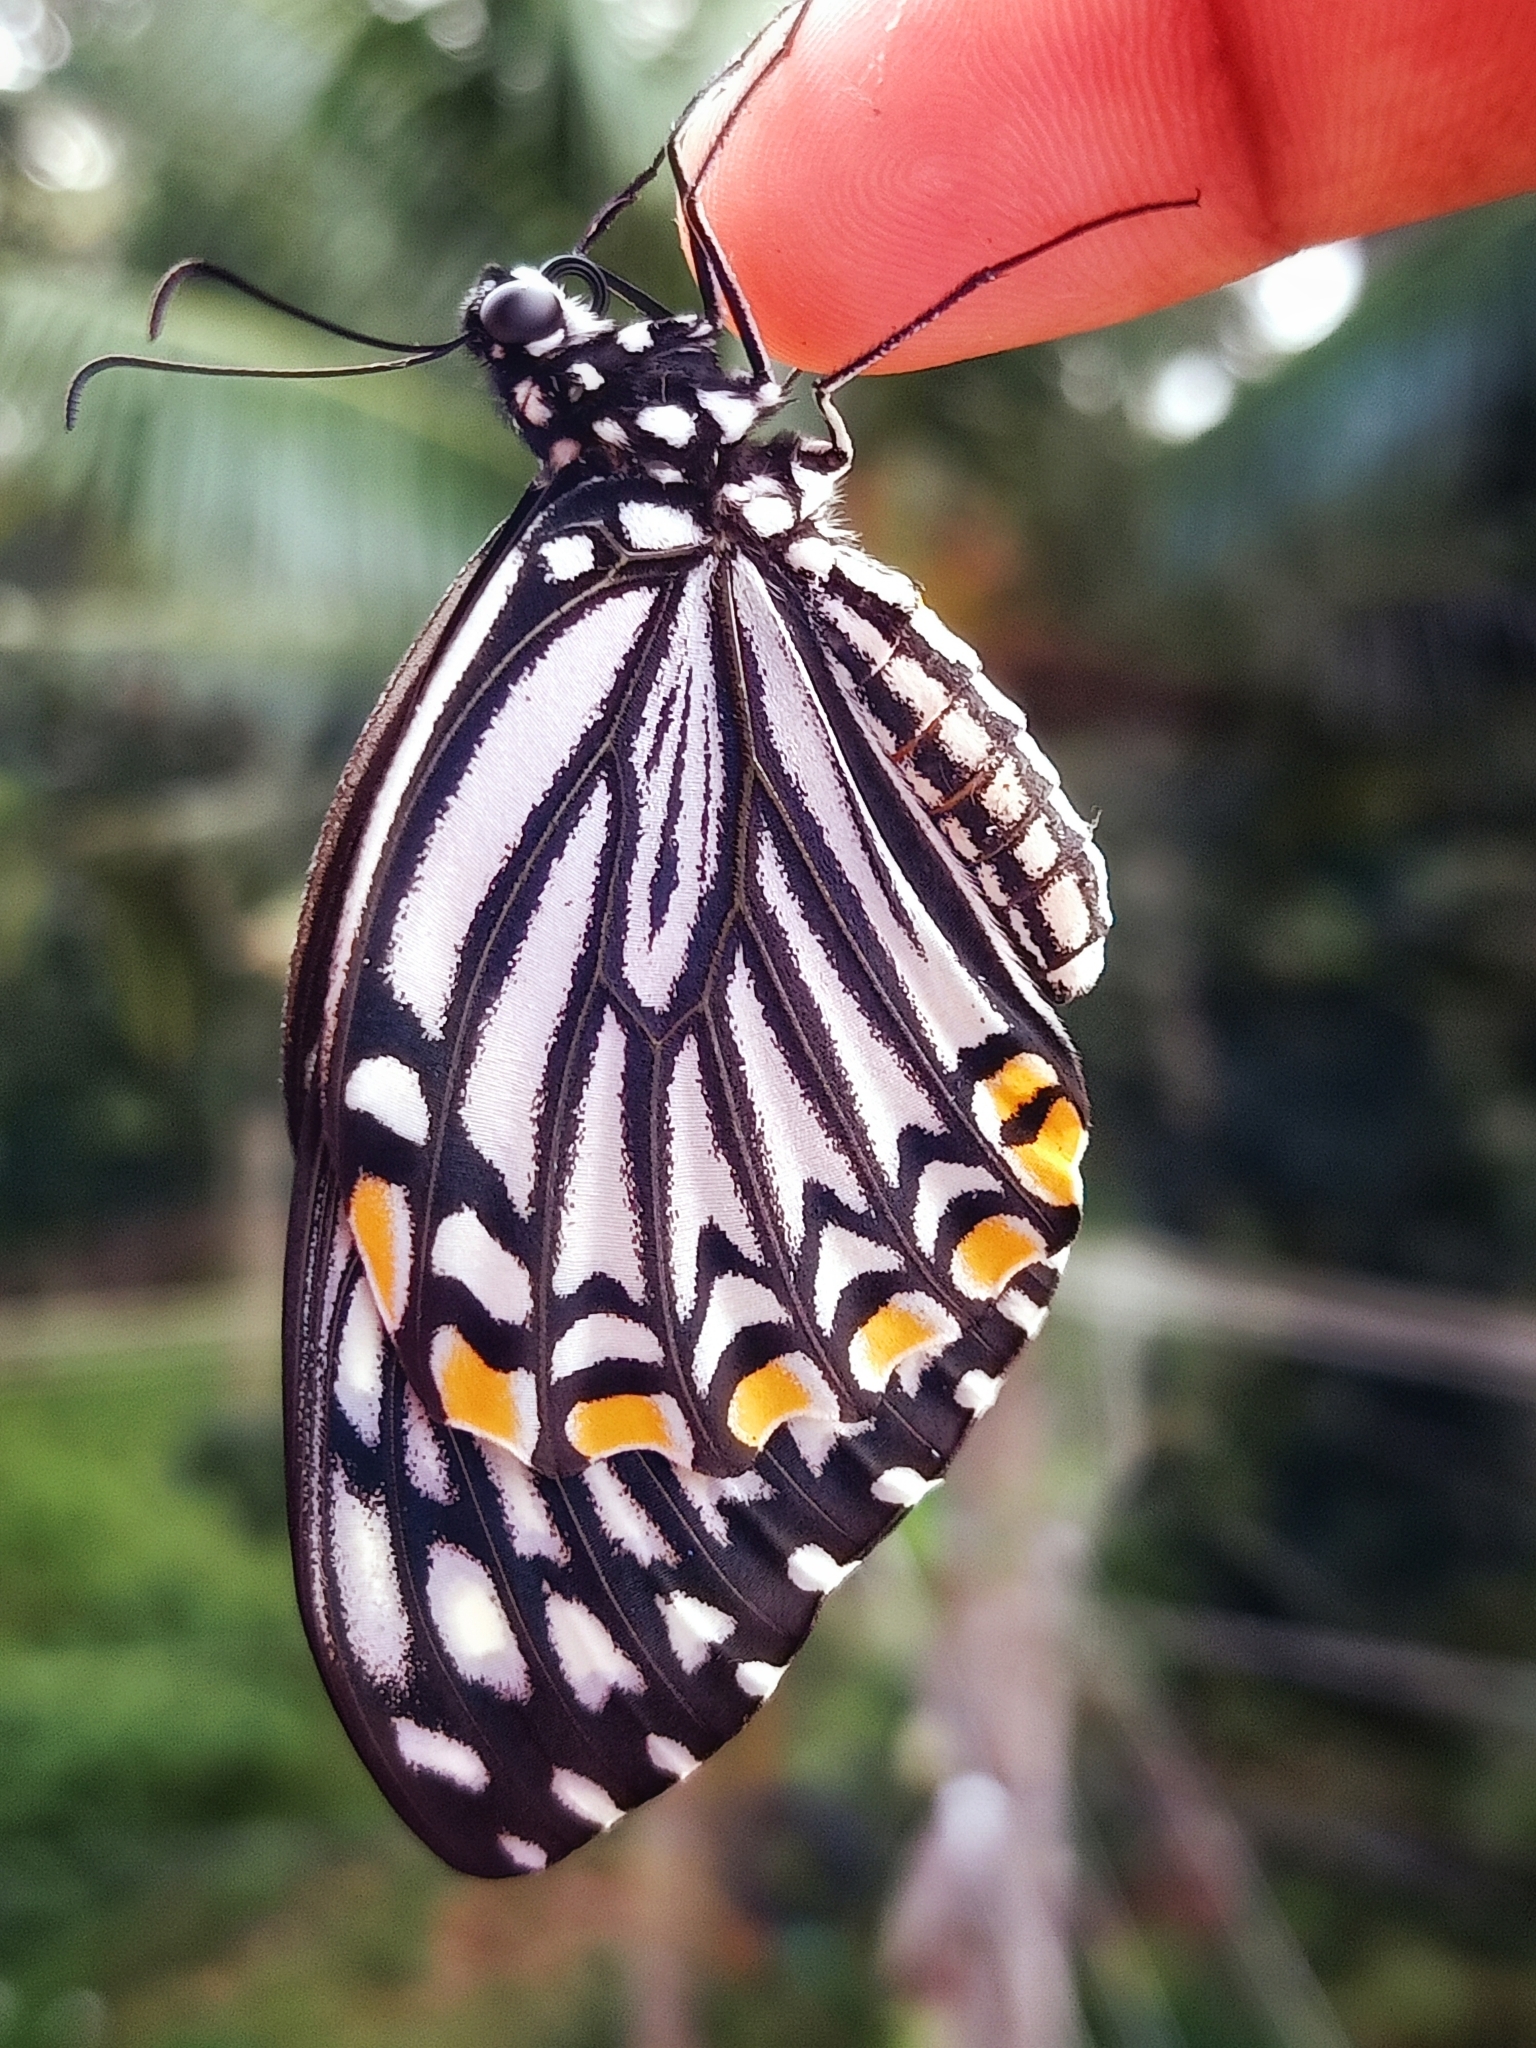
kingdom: Animalia
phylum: Arthropoda
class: Insecta
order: Lepidoptera
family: Papilionidae
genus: Chilasa
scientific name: Chilasa clytia
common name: Common mime
